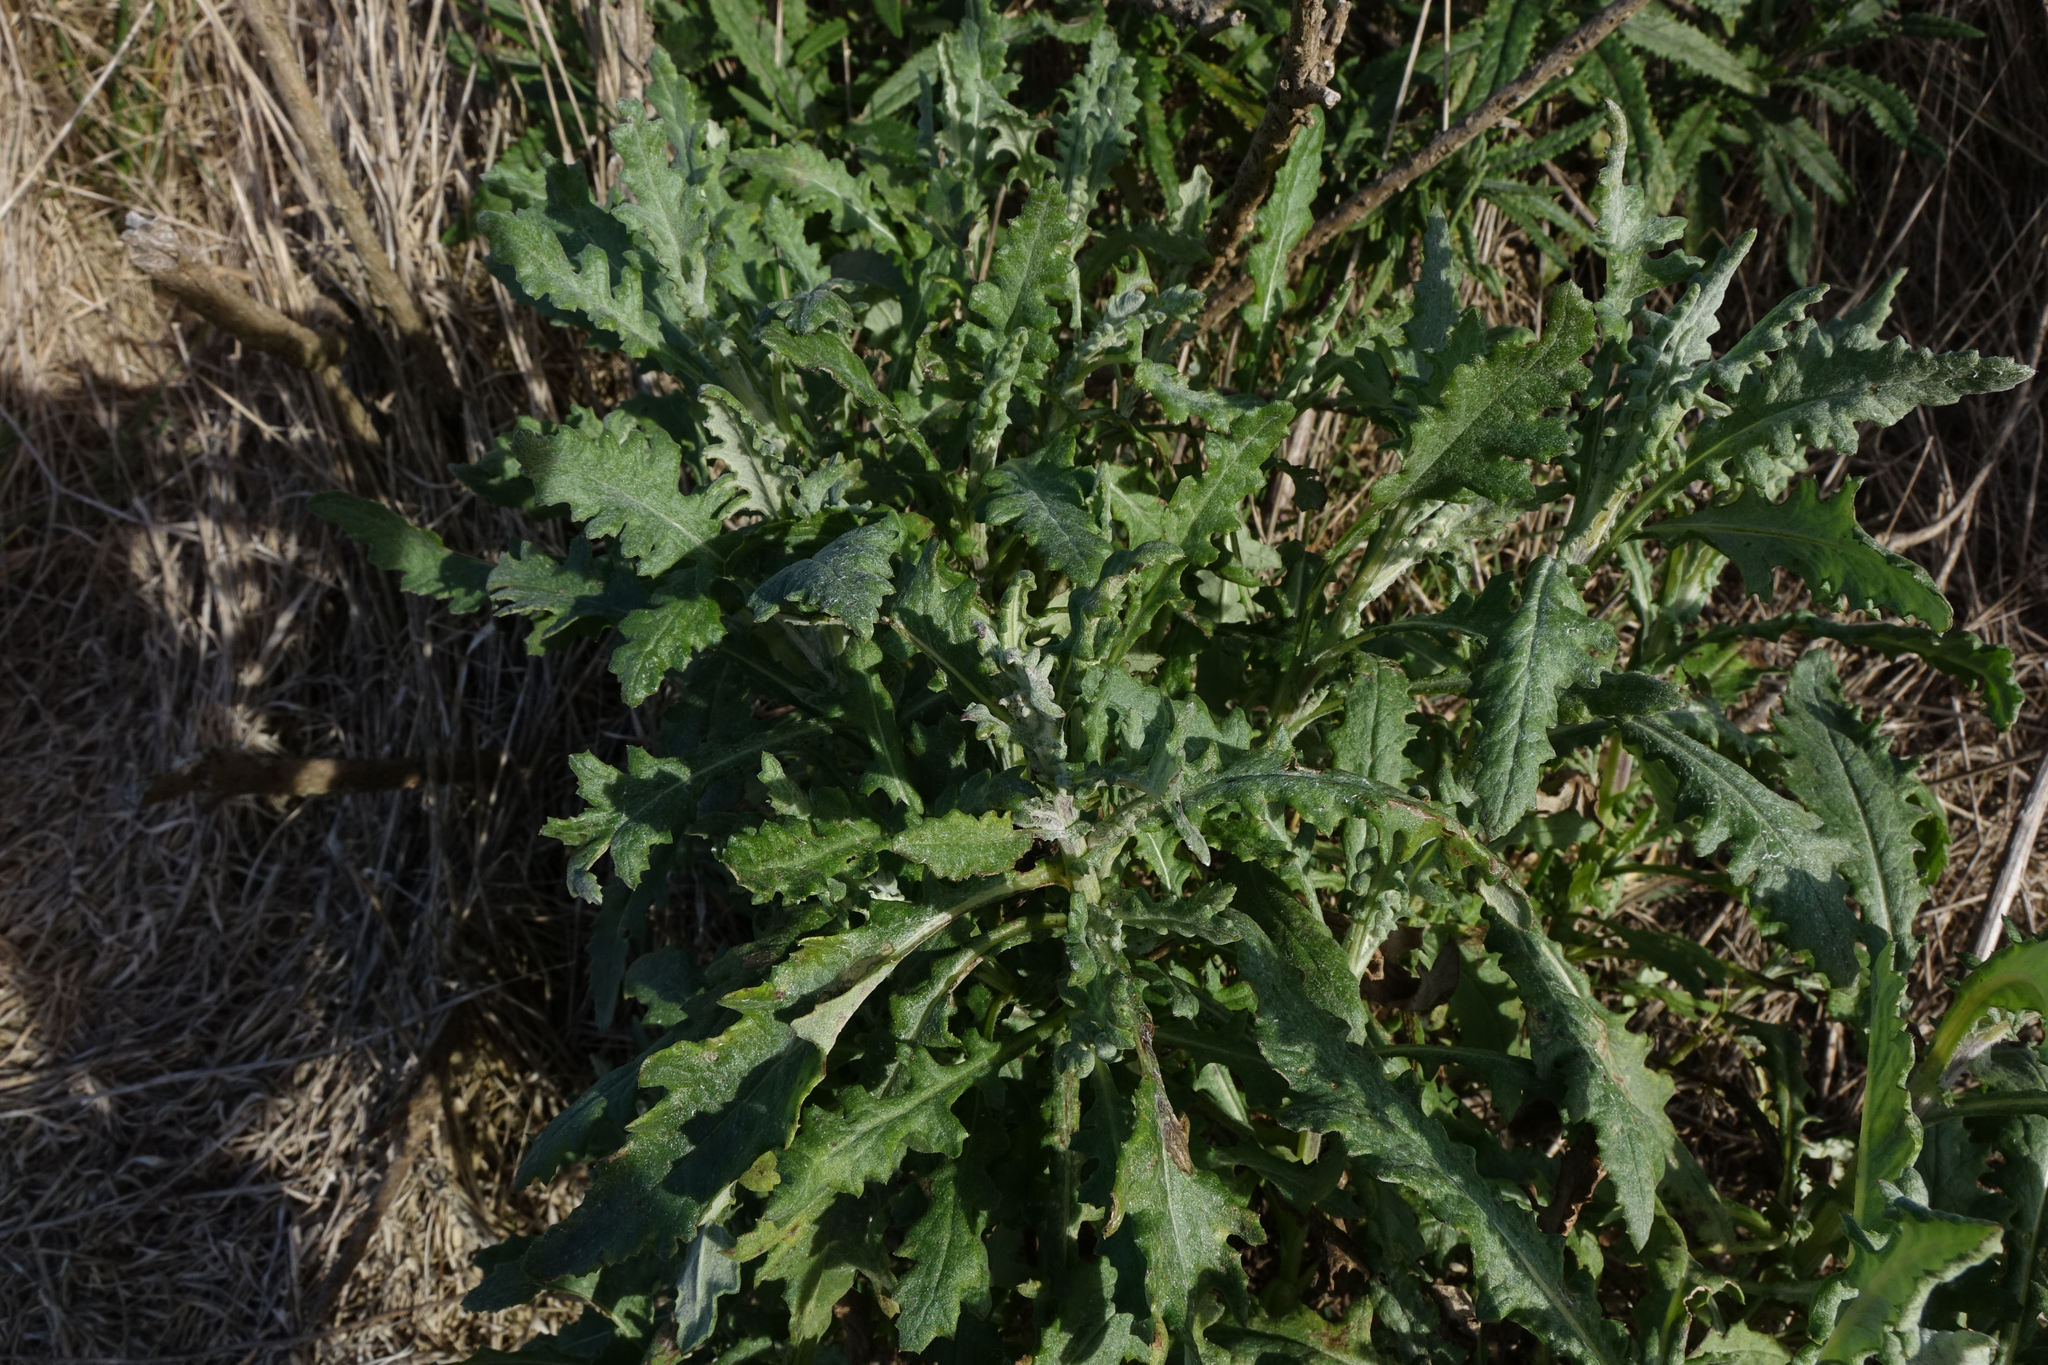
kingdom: Plantae
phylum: Tracheophyta
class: Magnoliopsida
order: Asterales
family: Asteraceae
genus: Senecio
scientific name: Senecio glomeratus
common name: Cutleaf burnweed
